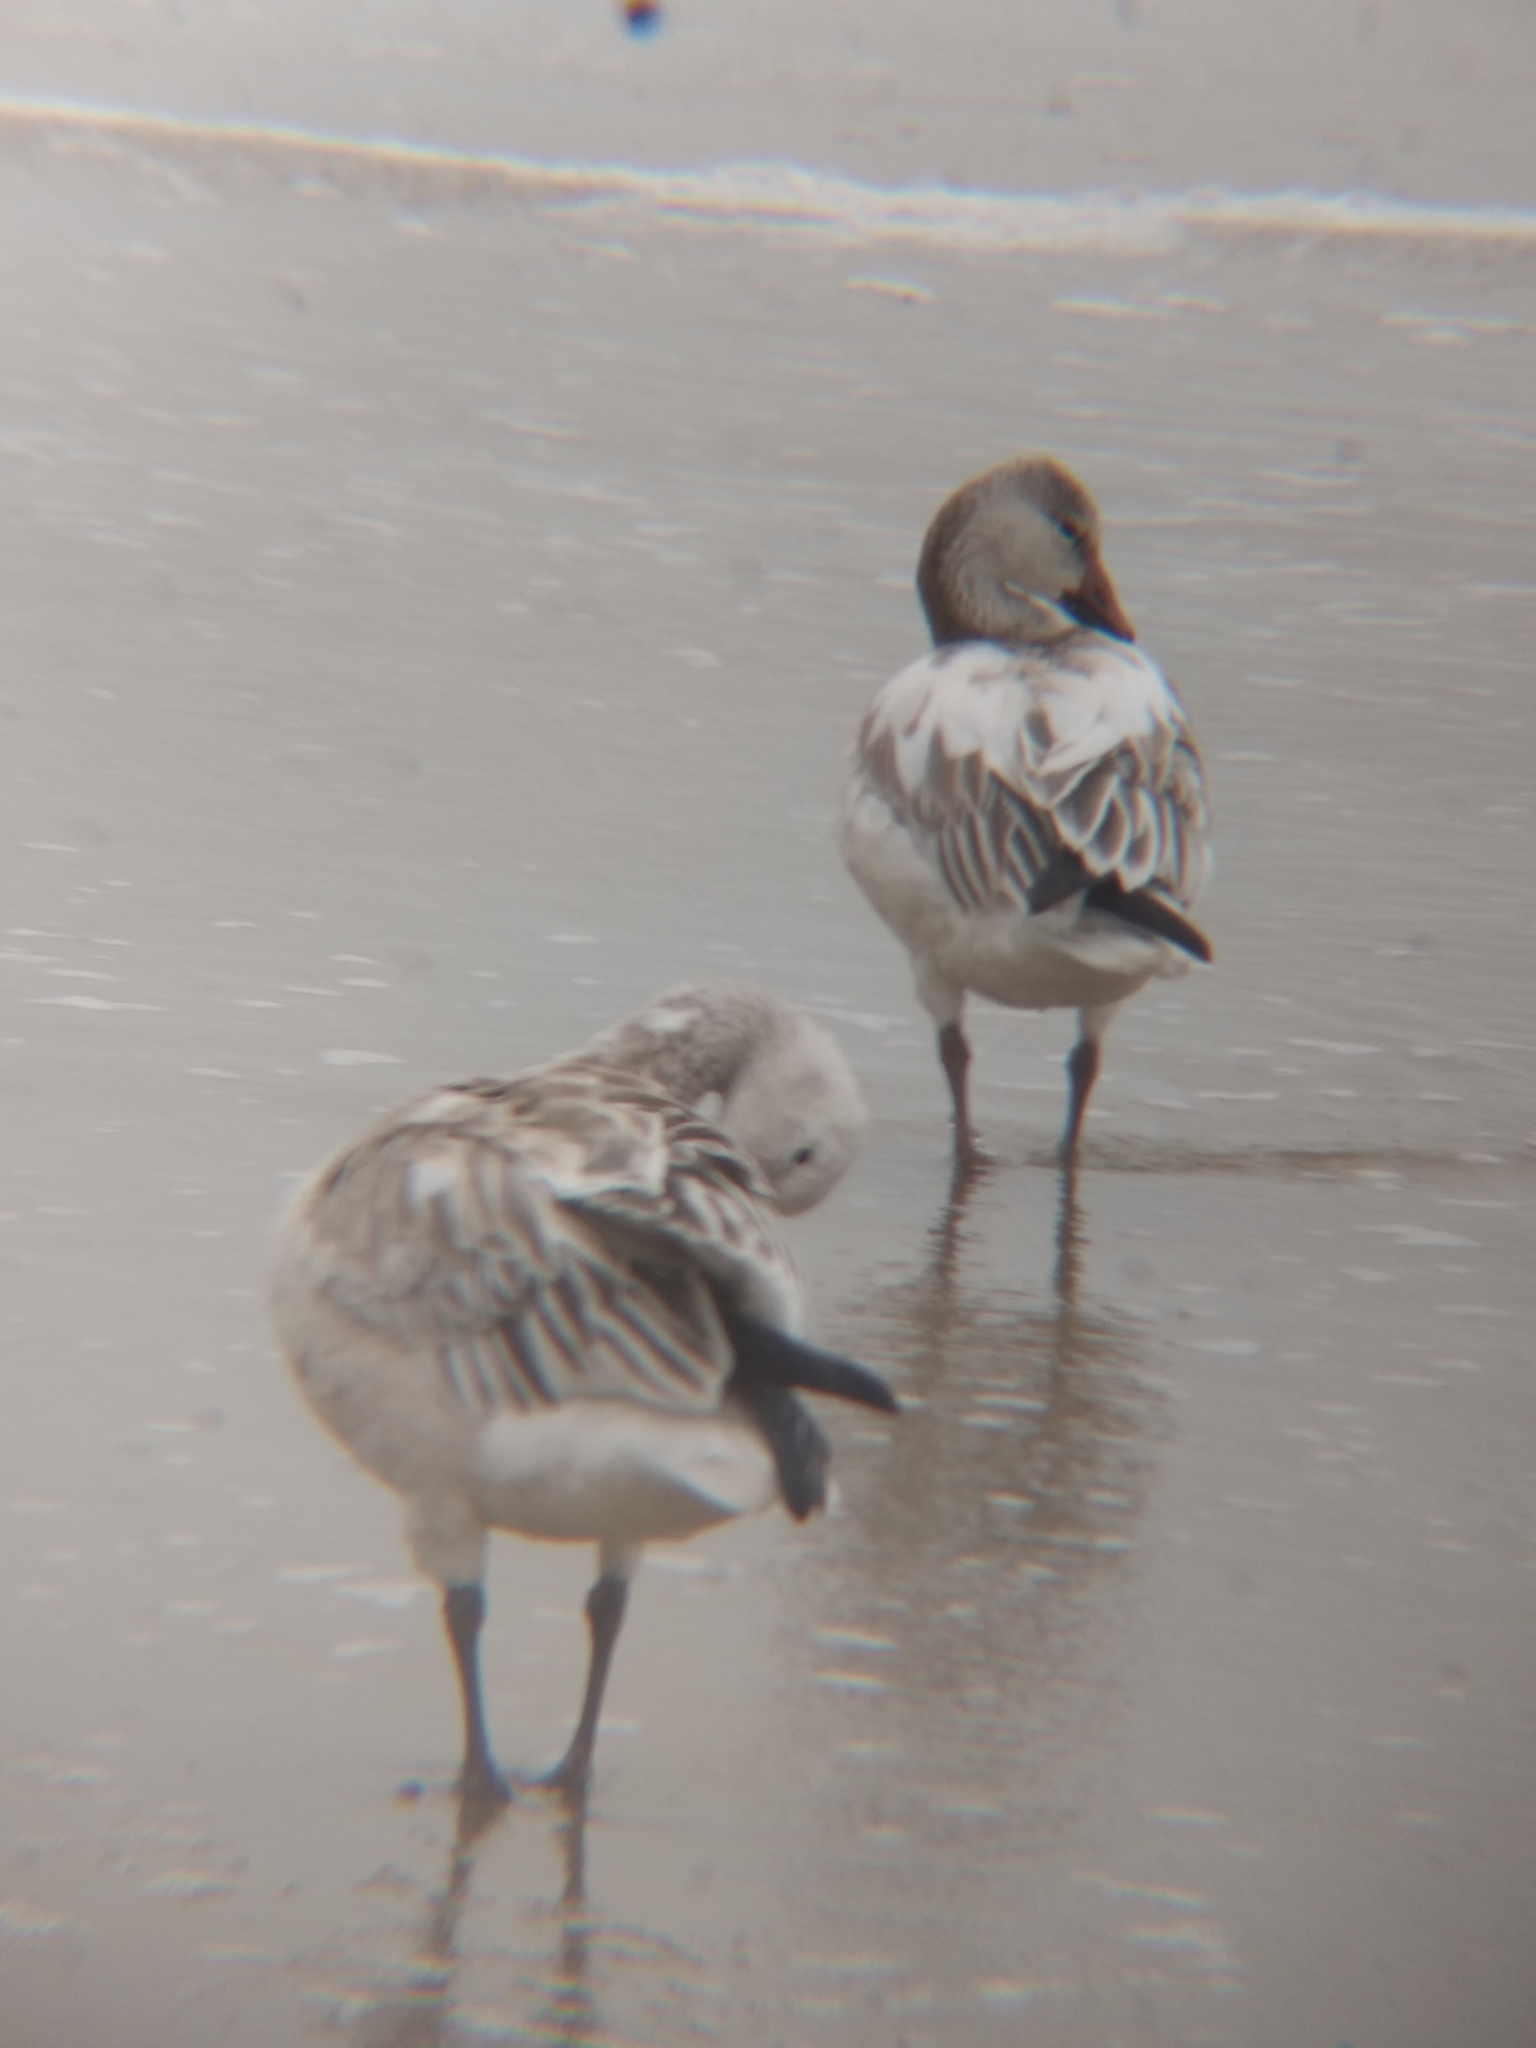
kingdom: Animalia
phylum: Chordata
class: Aves
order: Anseriformes
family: Anatidae
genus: Anser
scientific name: Anser caerulescens
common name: Snow goose
